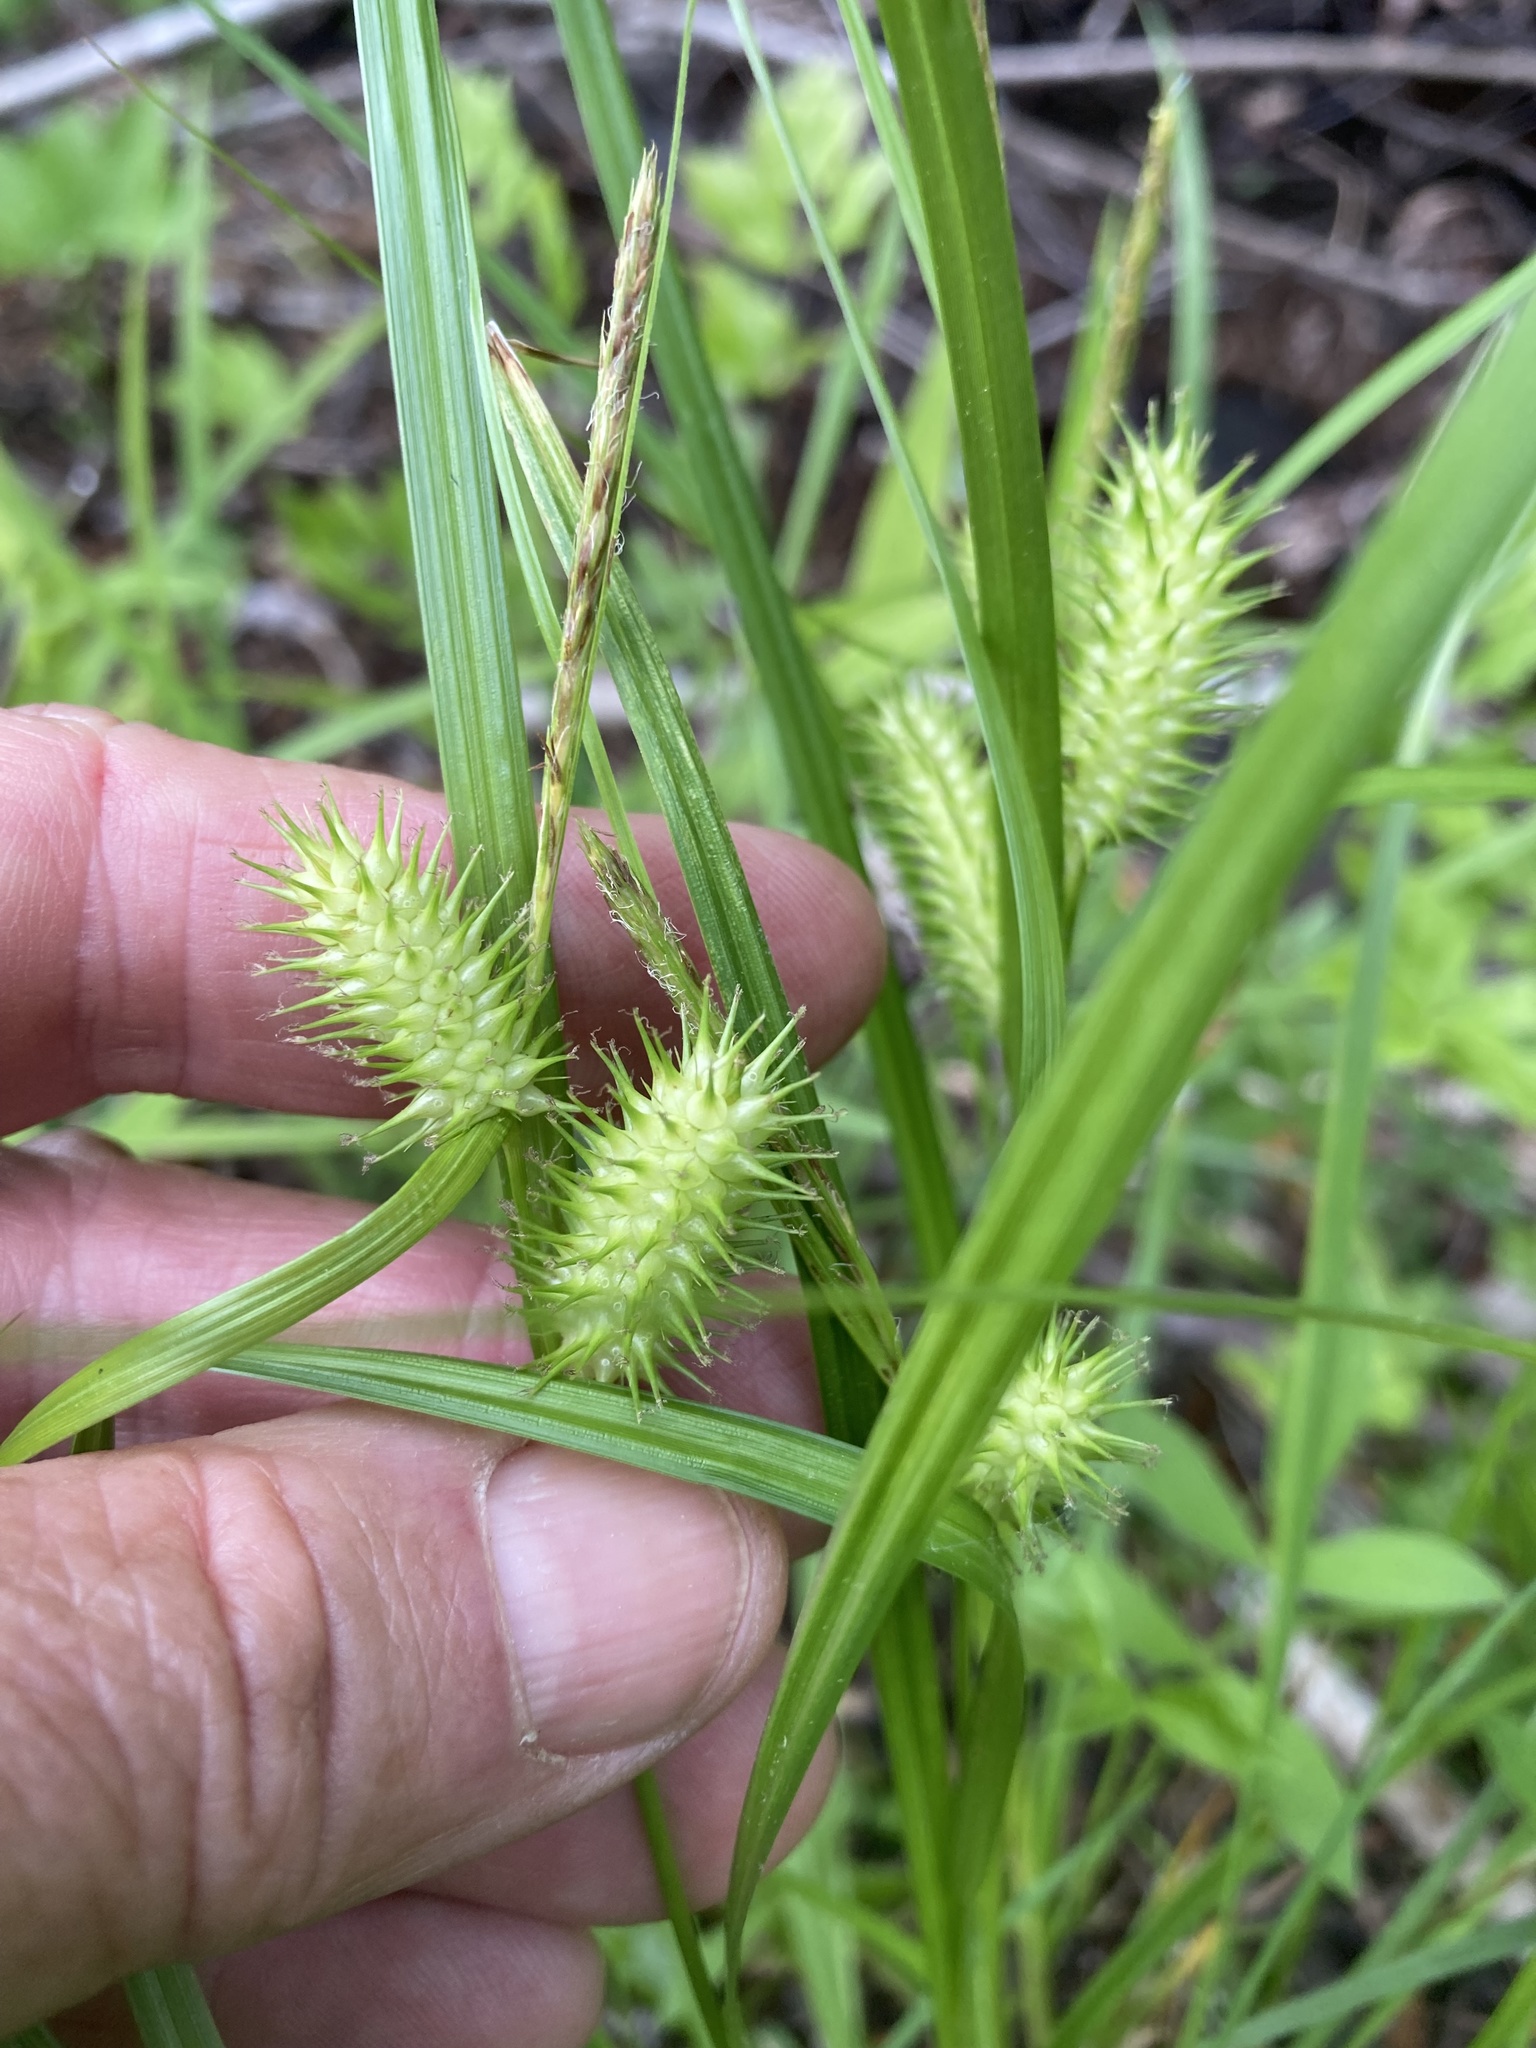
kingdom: Plantae
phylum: Tracheophyta
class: Liliopsida
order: Poales
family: Cyperaceae
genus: Carex
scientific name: Carex lurida
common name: Sallow sedge
